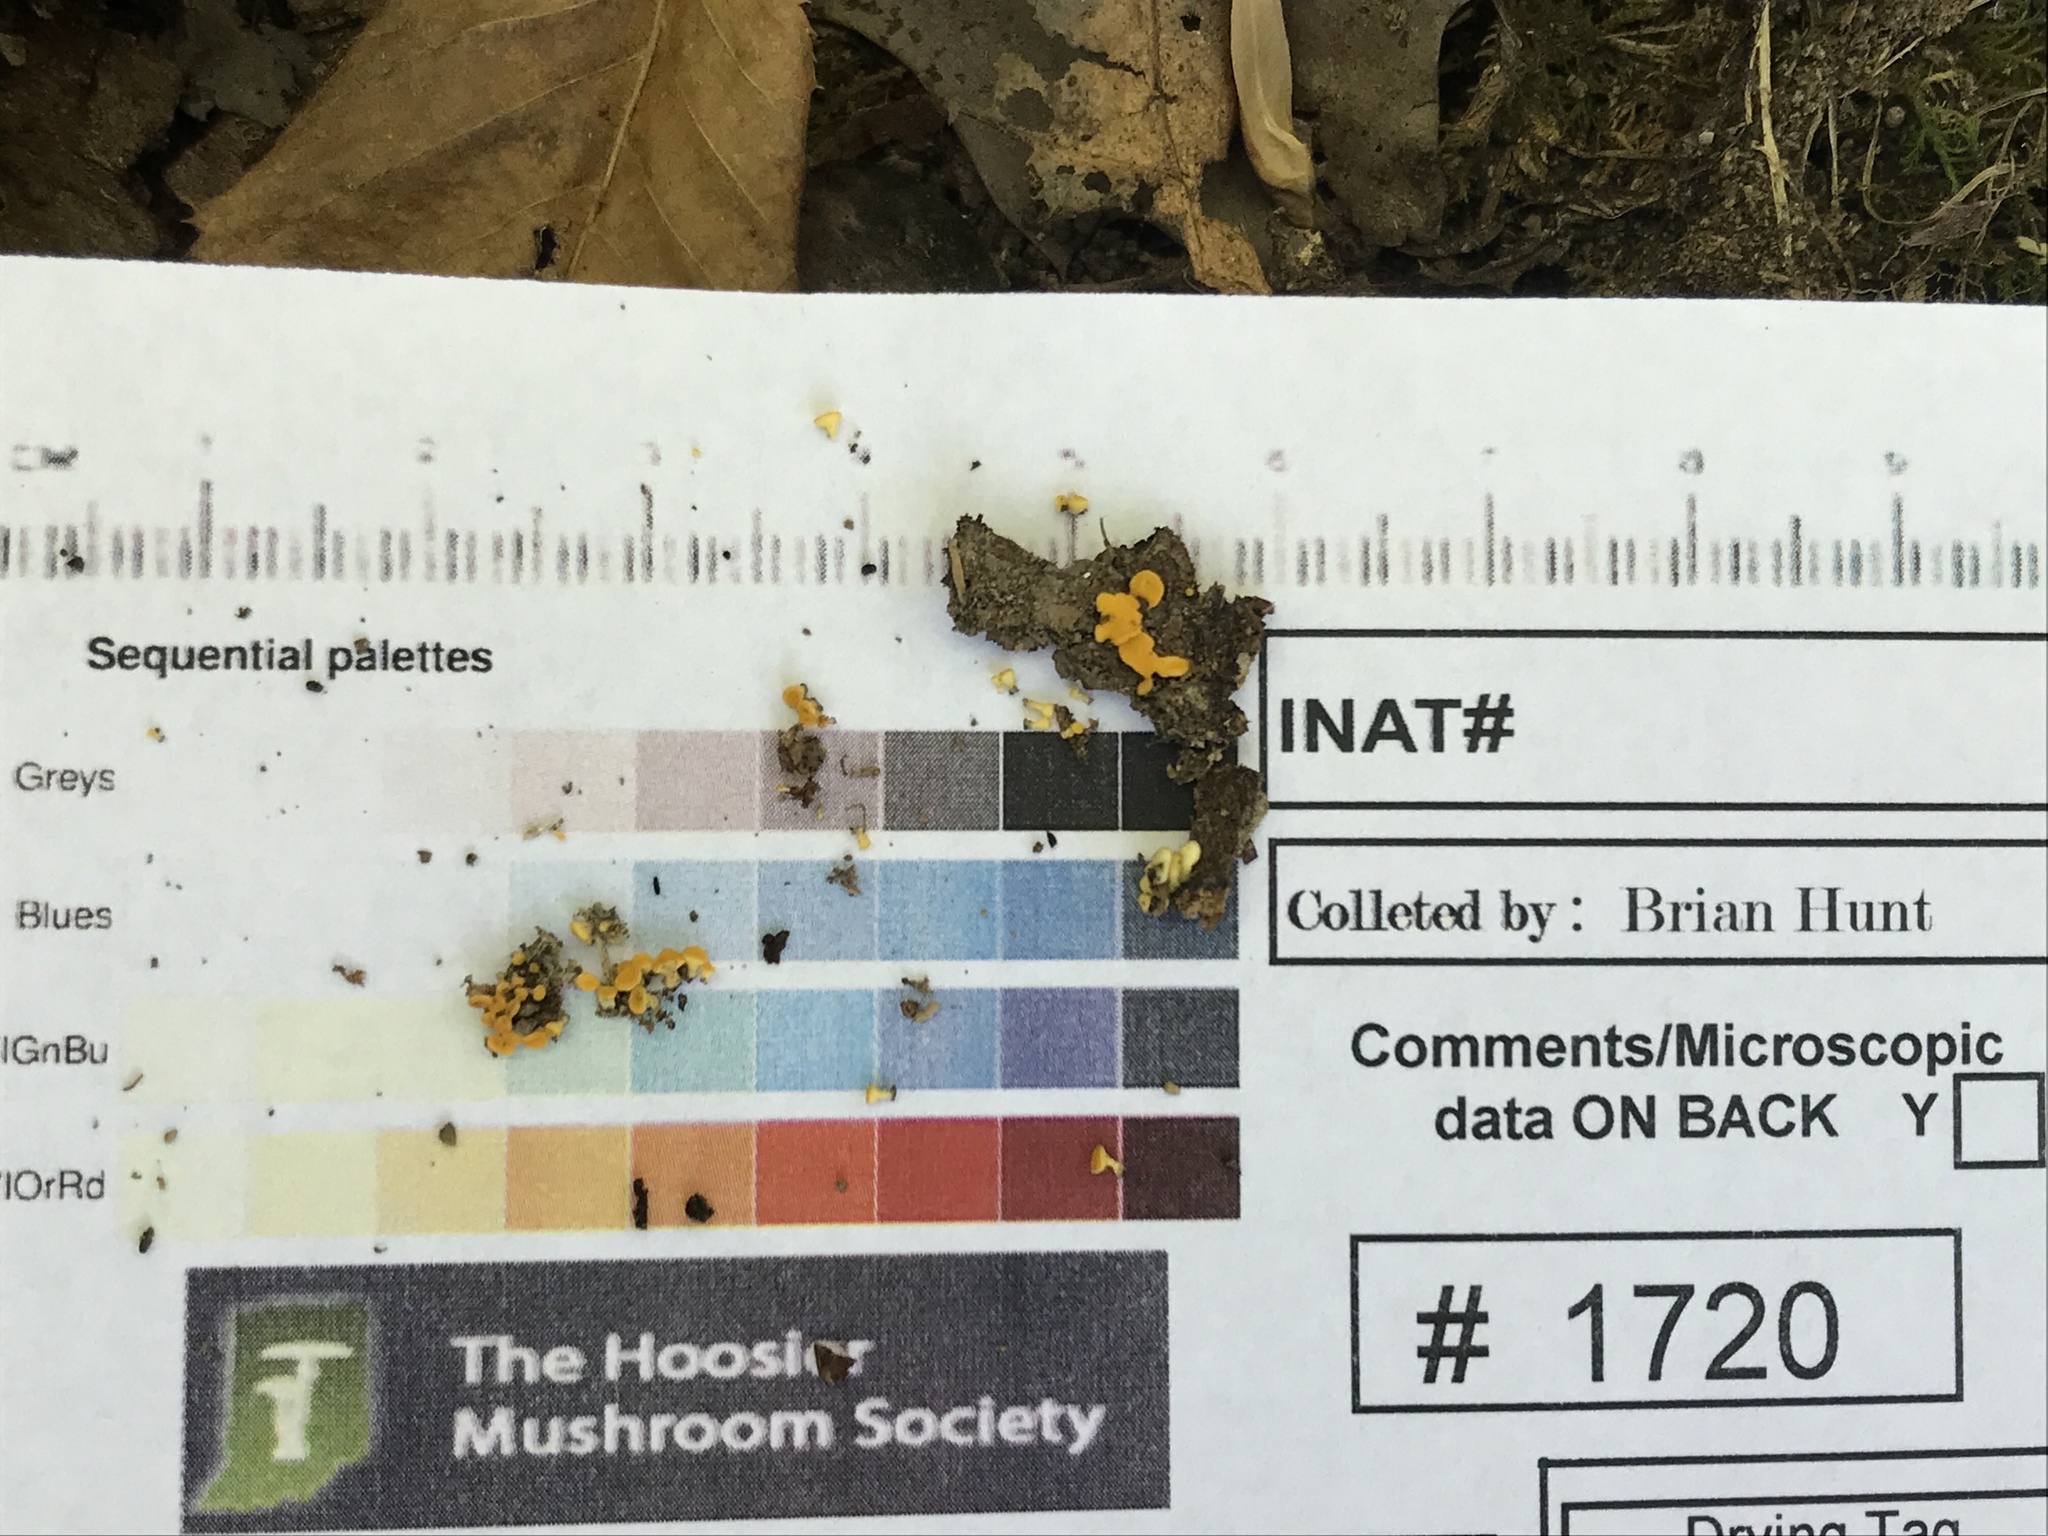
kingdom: Fungi
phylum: Ascomycota
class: Leotiomycetes
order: Helotiales
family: Pezizellaceae
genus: Calycina
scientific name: Calycina citrina
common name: Yellow fairy cups
